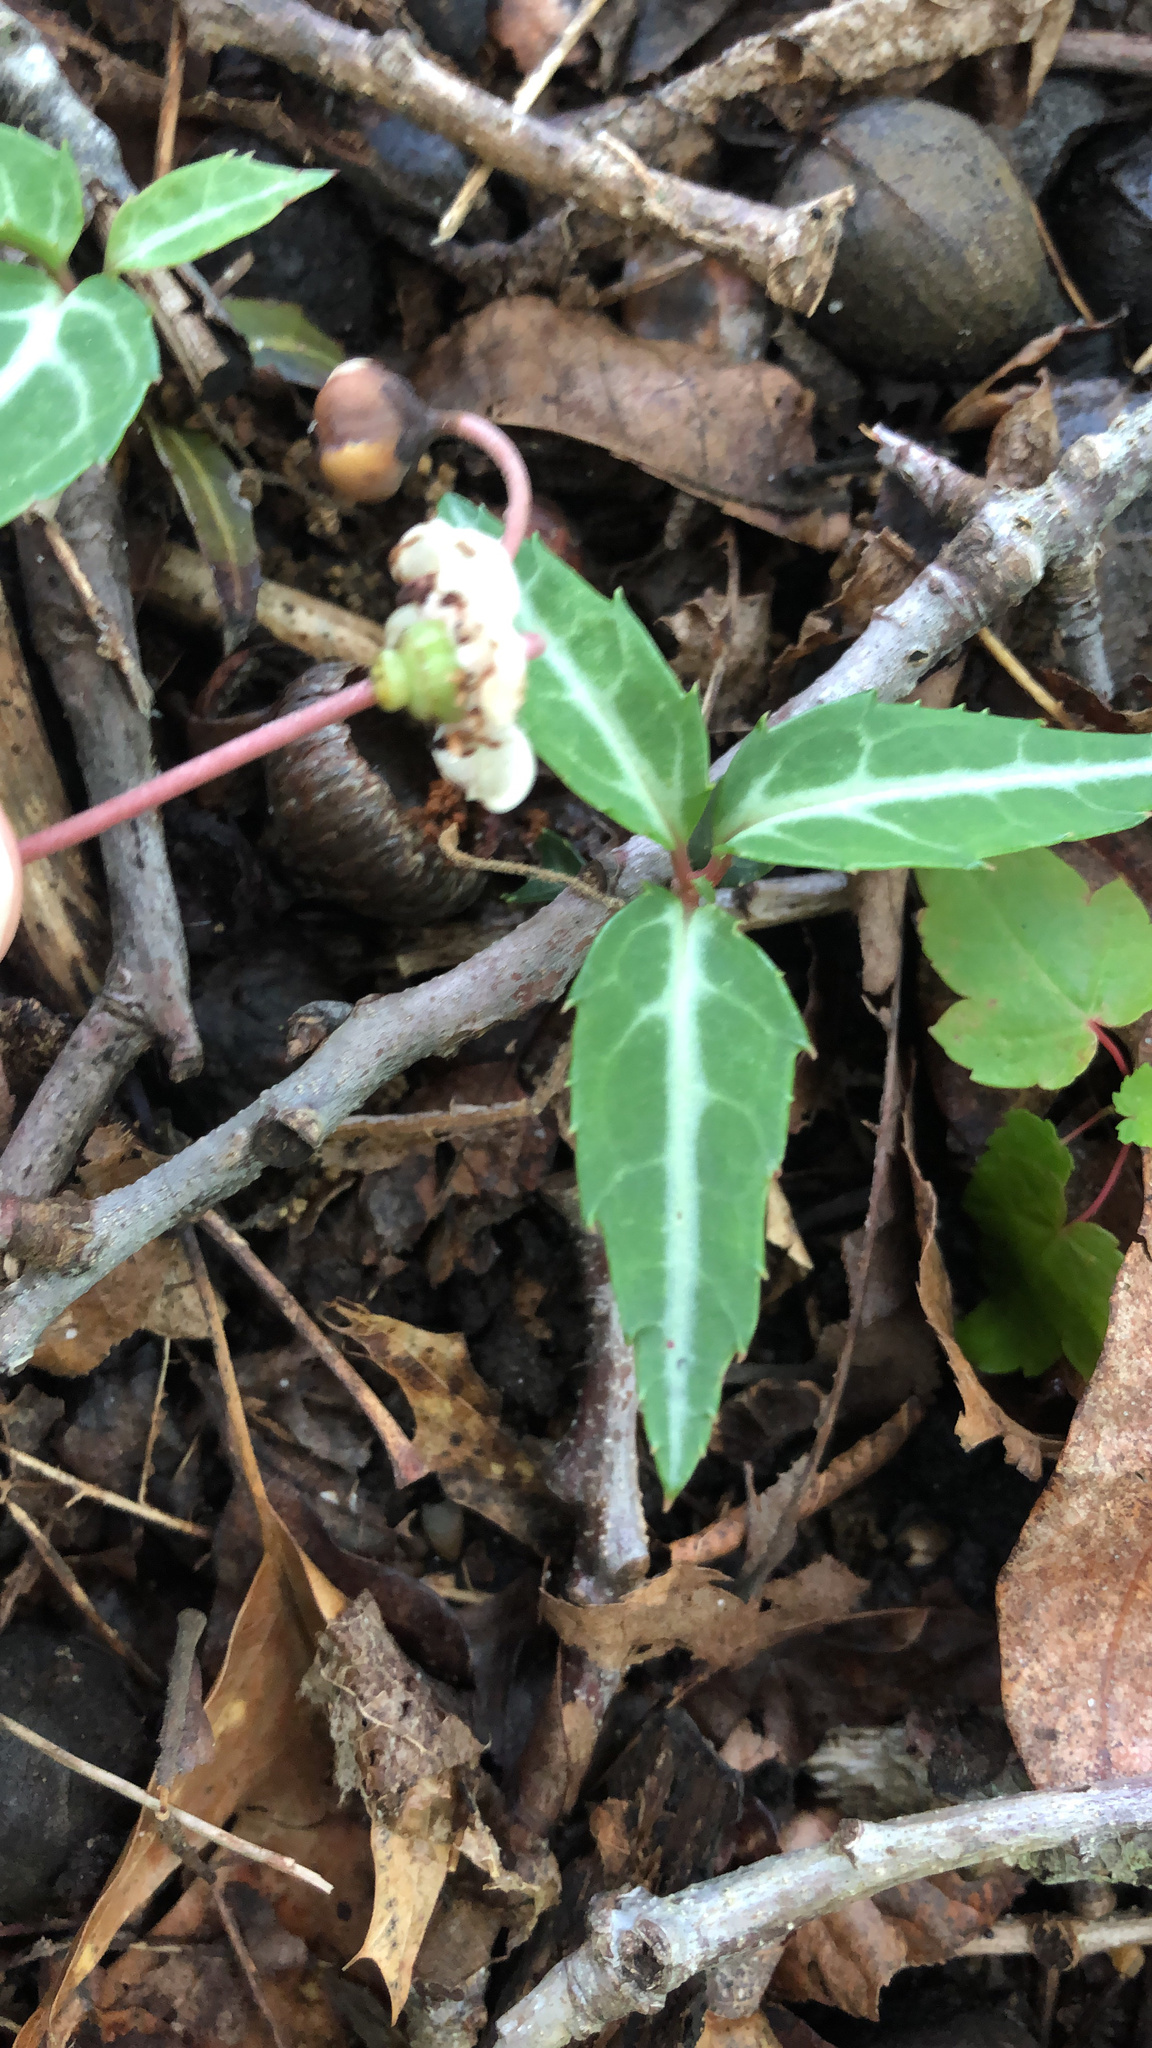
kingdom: Plantae
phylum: Tracheophyta
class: Magnoliopsida
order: Ericales
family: Ericaceae
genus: Chimaphila
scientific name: Chimaphila maculata
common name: Spotted pipsissewa
